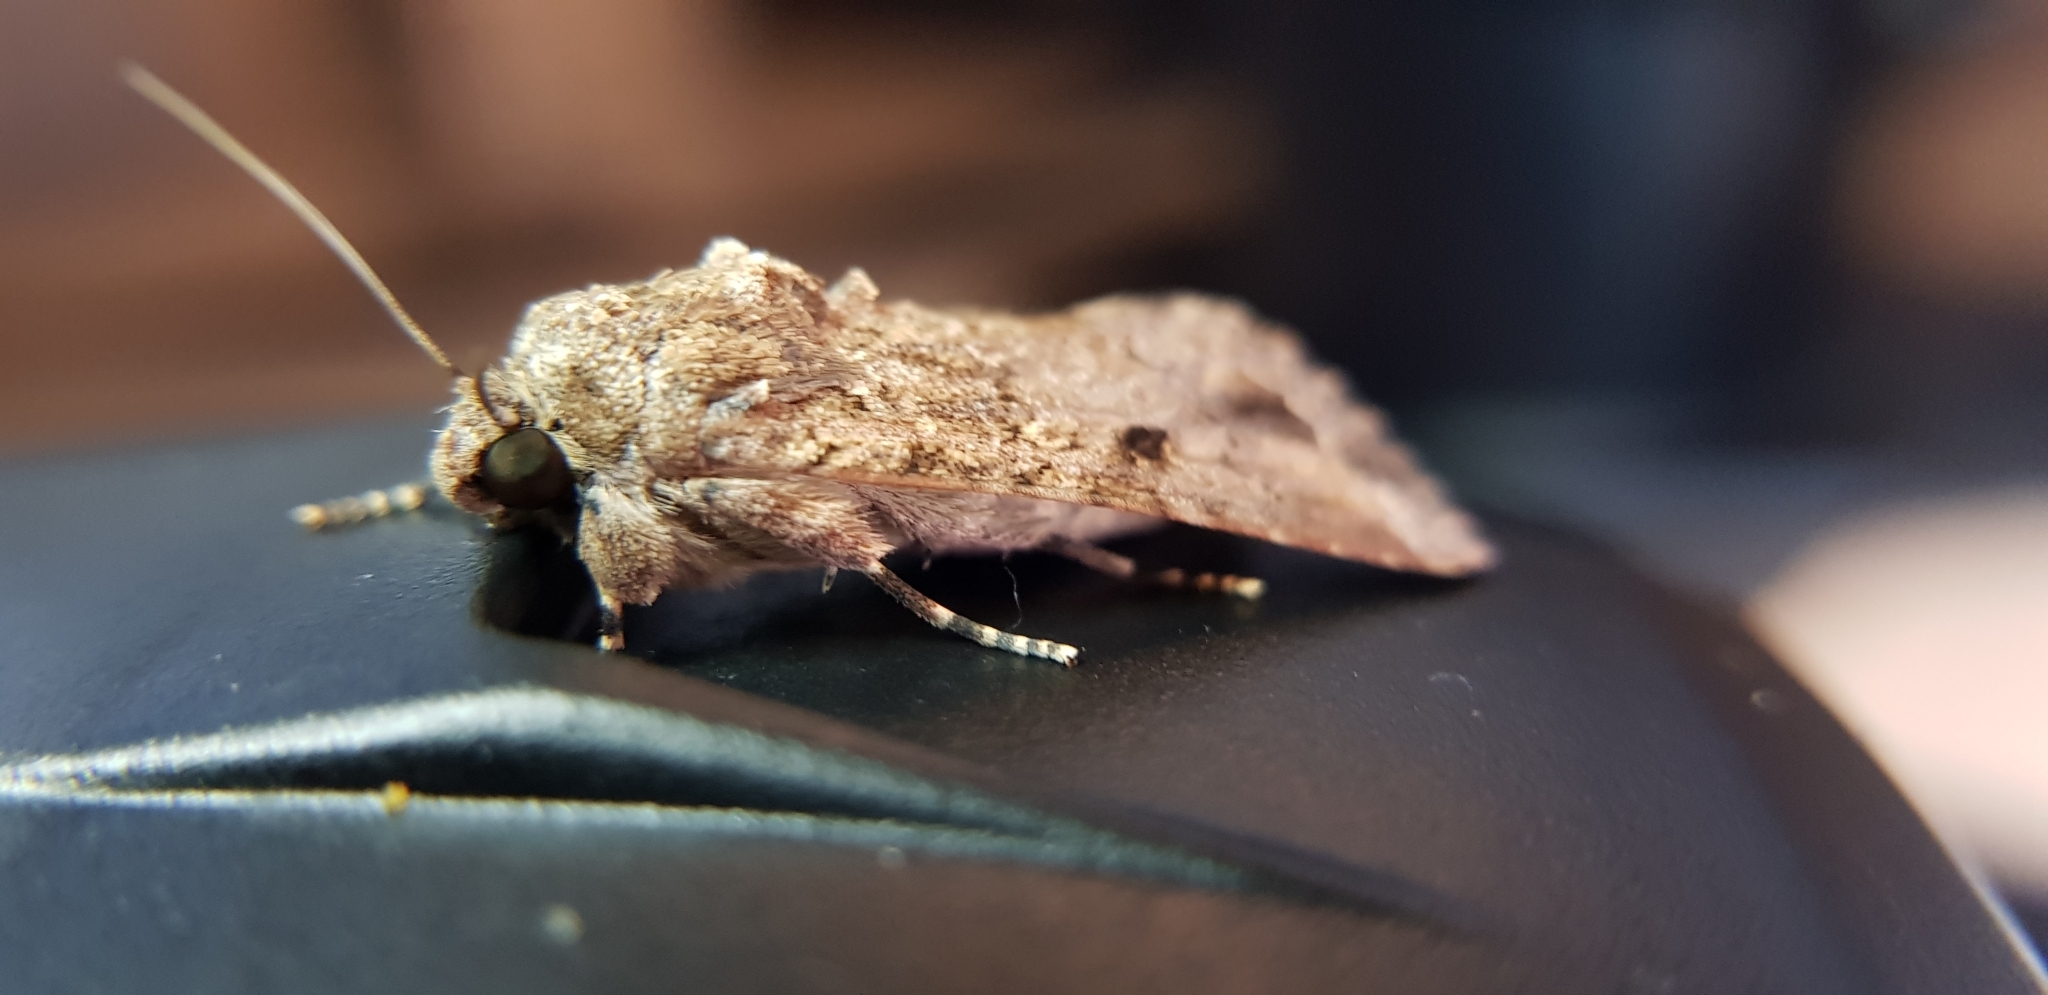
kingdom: Animalia
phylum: Arthropoda
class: Insecta
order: Lepidoptera
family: Noctuidae
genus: Spodoptera
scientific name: Spodoptera mauritia
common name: Lawn armyworm
